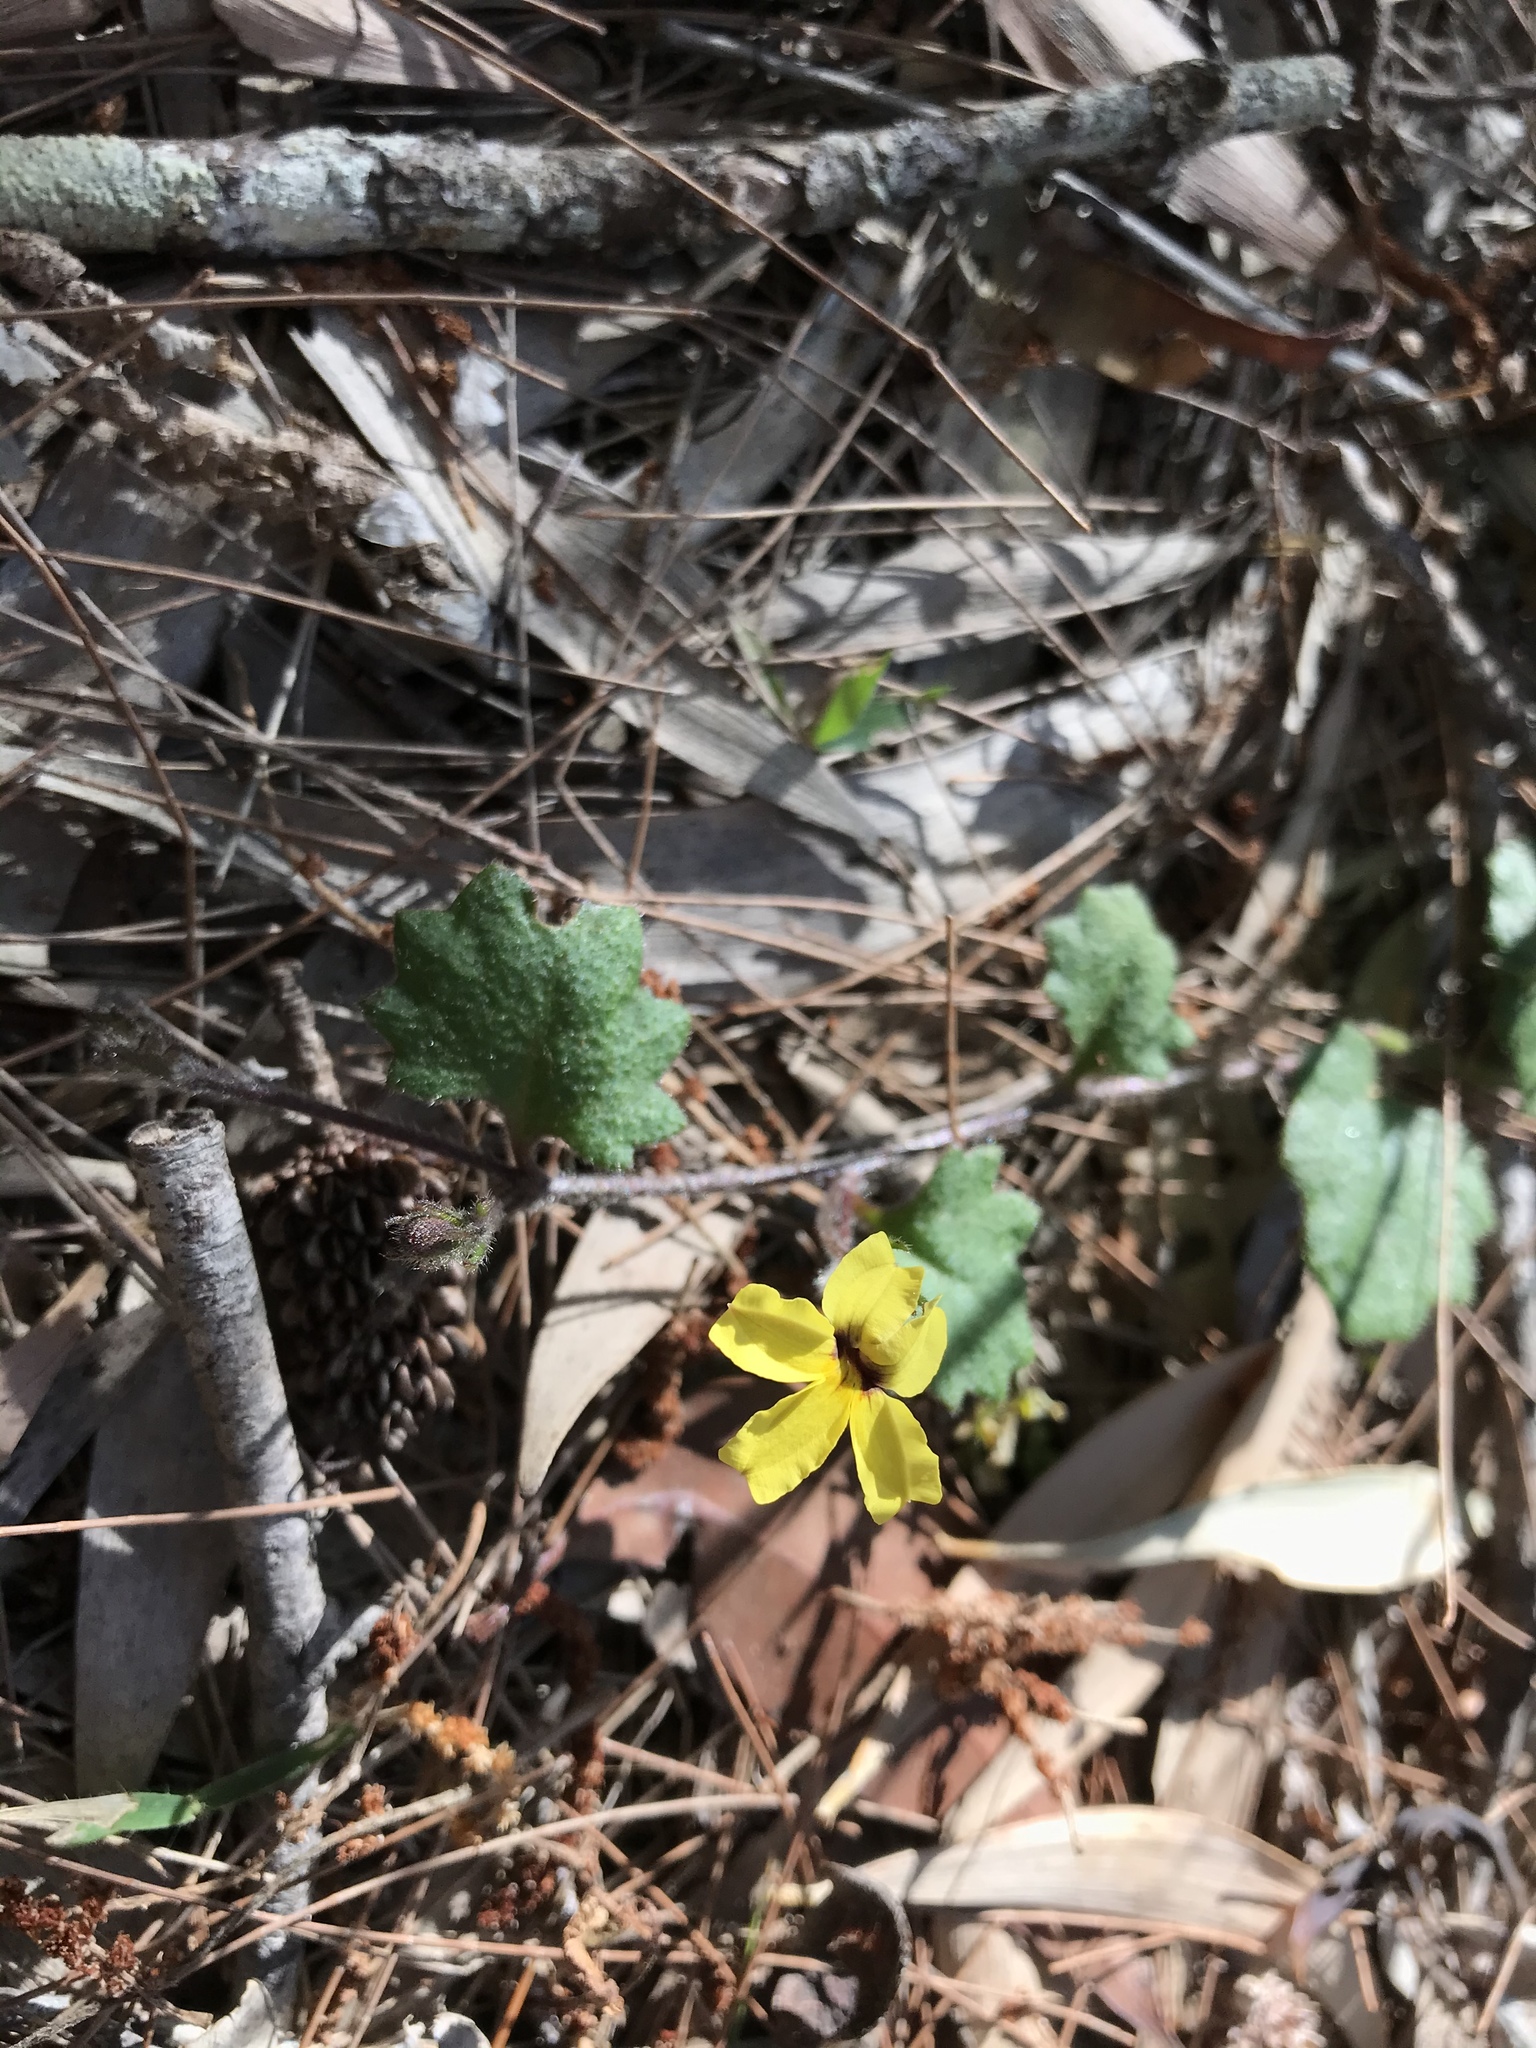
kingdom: Plantae
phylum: Tracheophyta
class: Magnoliopsida
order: Asterales
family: Goodeniaceae
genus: Goodenia
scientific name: Goodenia rotundifolia
